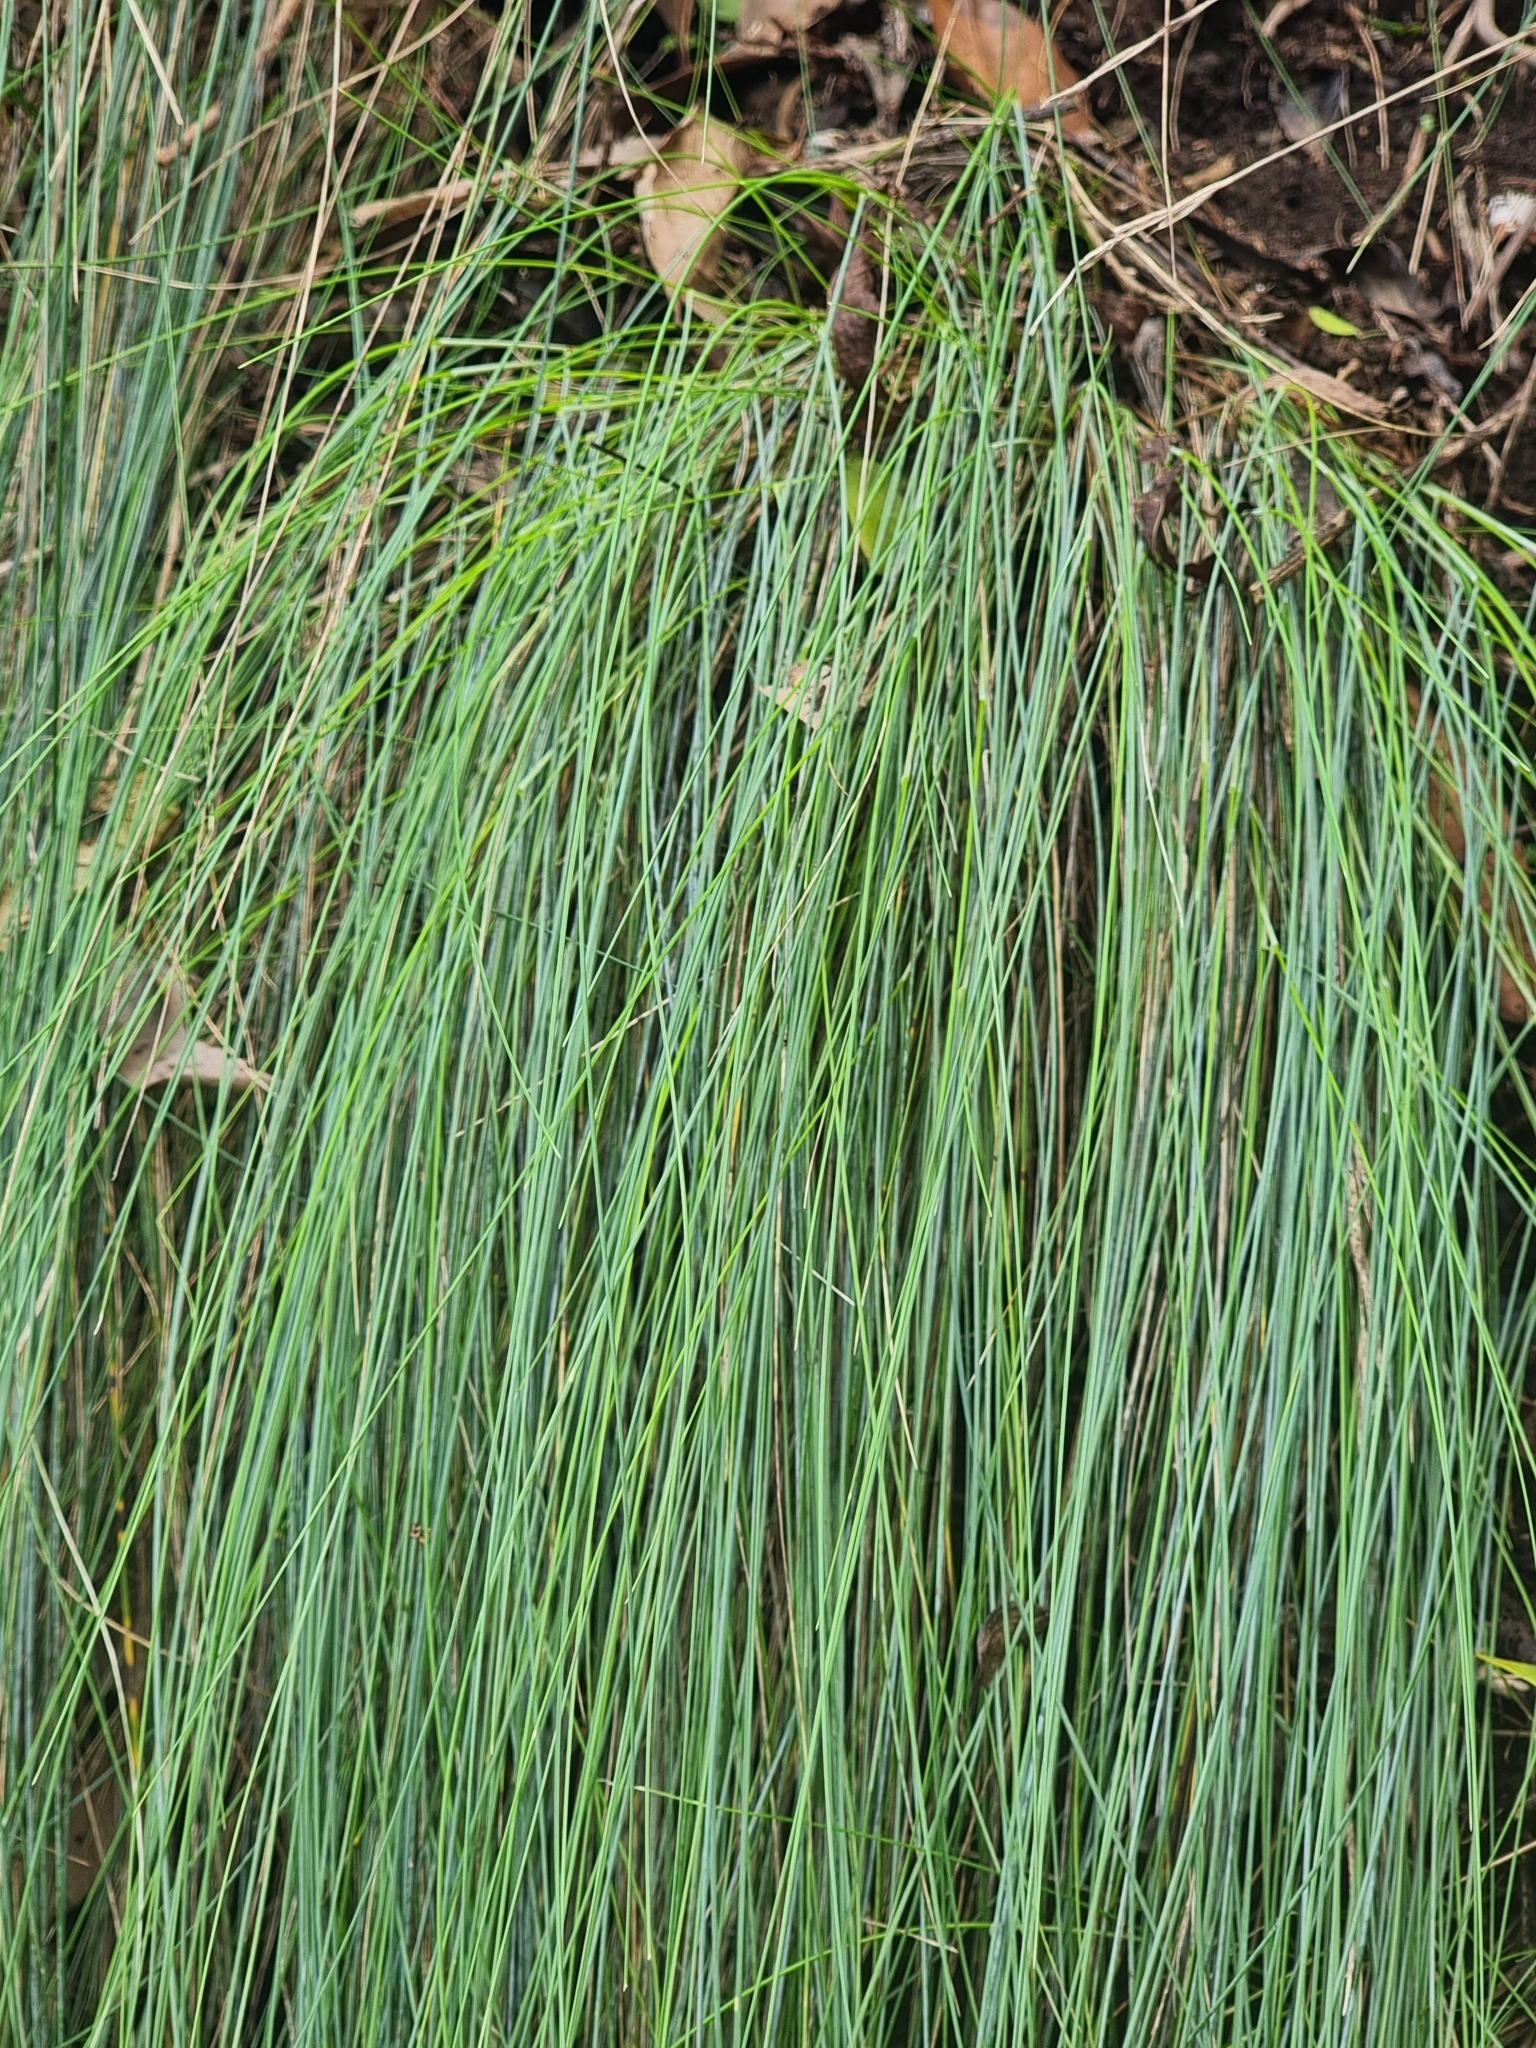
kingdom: Plantae
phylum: Tracheophyta
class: Liliopsida
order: Poales
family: Poaceae
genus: Festuca
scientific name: Festuca jubata
